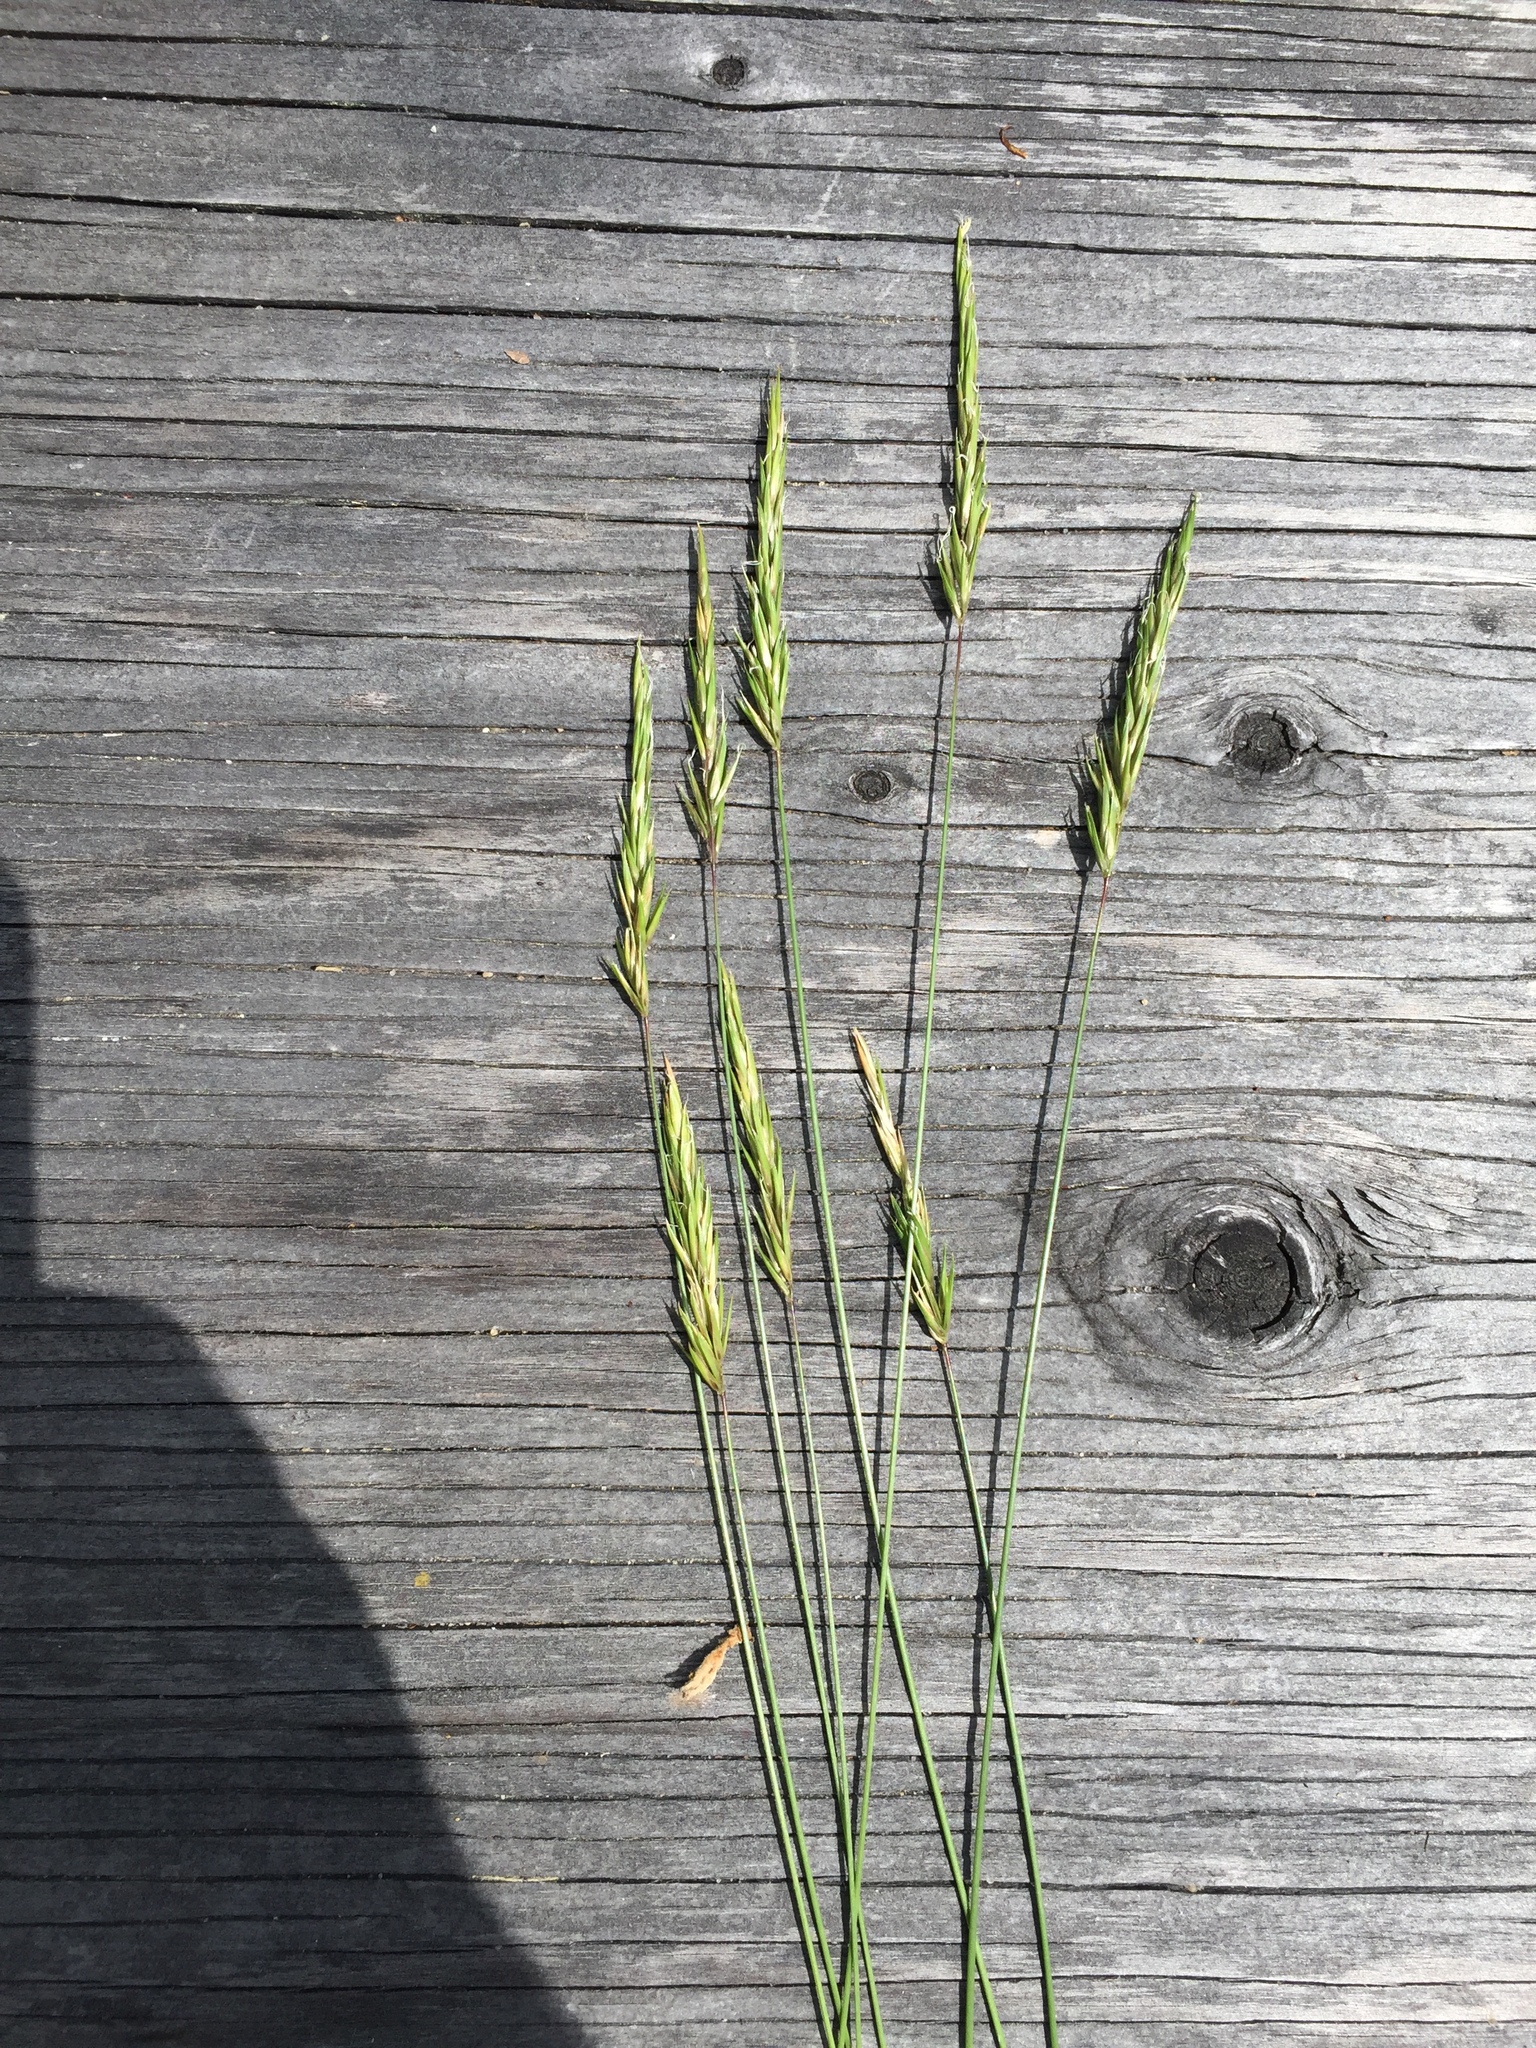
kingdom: Plantae
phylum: Tracheophyta
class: Liliopsida
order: Poales
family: Poaceae
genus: Anthoxanthum
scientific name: Anthoxanthum odoratum
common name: Sweet vernalgrass
